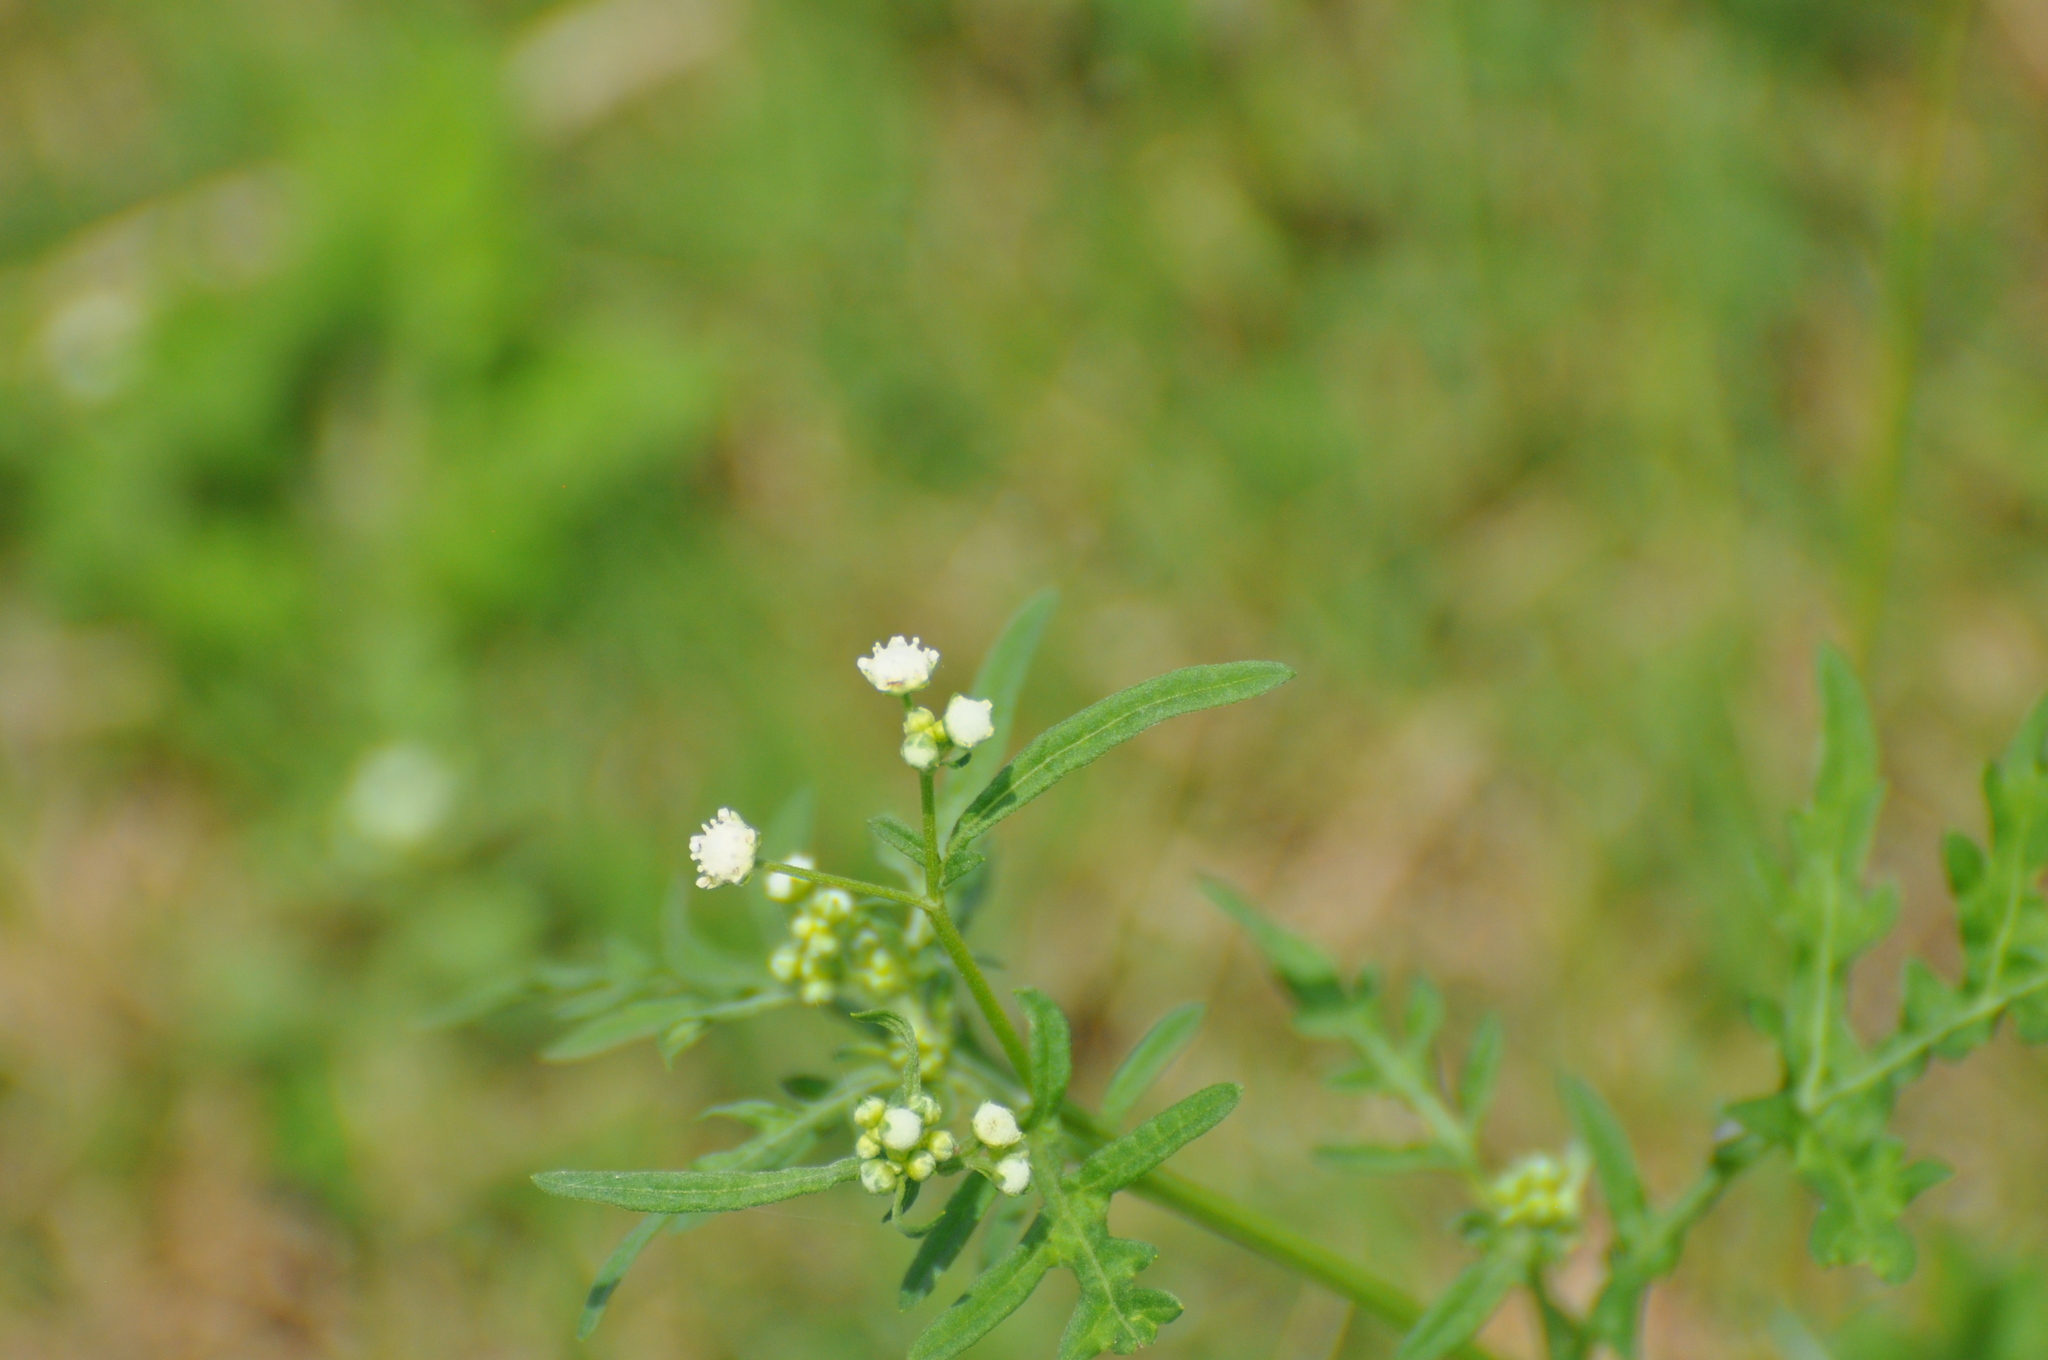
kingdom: Plantae
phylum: Tracheophyta
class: Magnoliopsida
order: Asterales
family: Asteraceae
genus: Parthenium
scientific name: Parthenium hysterophorus
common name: Santa maria feverfew
